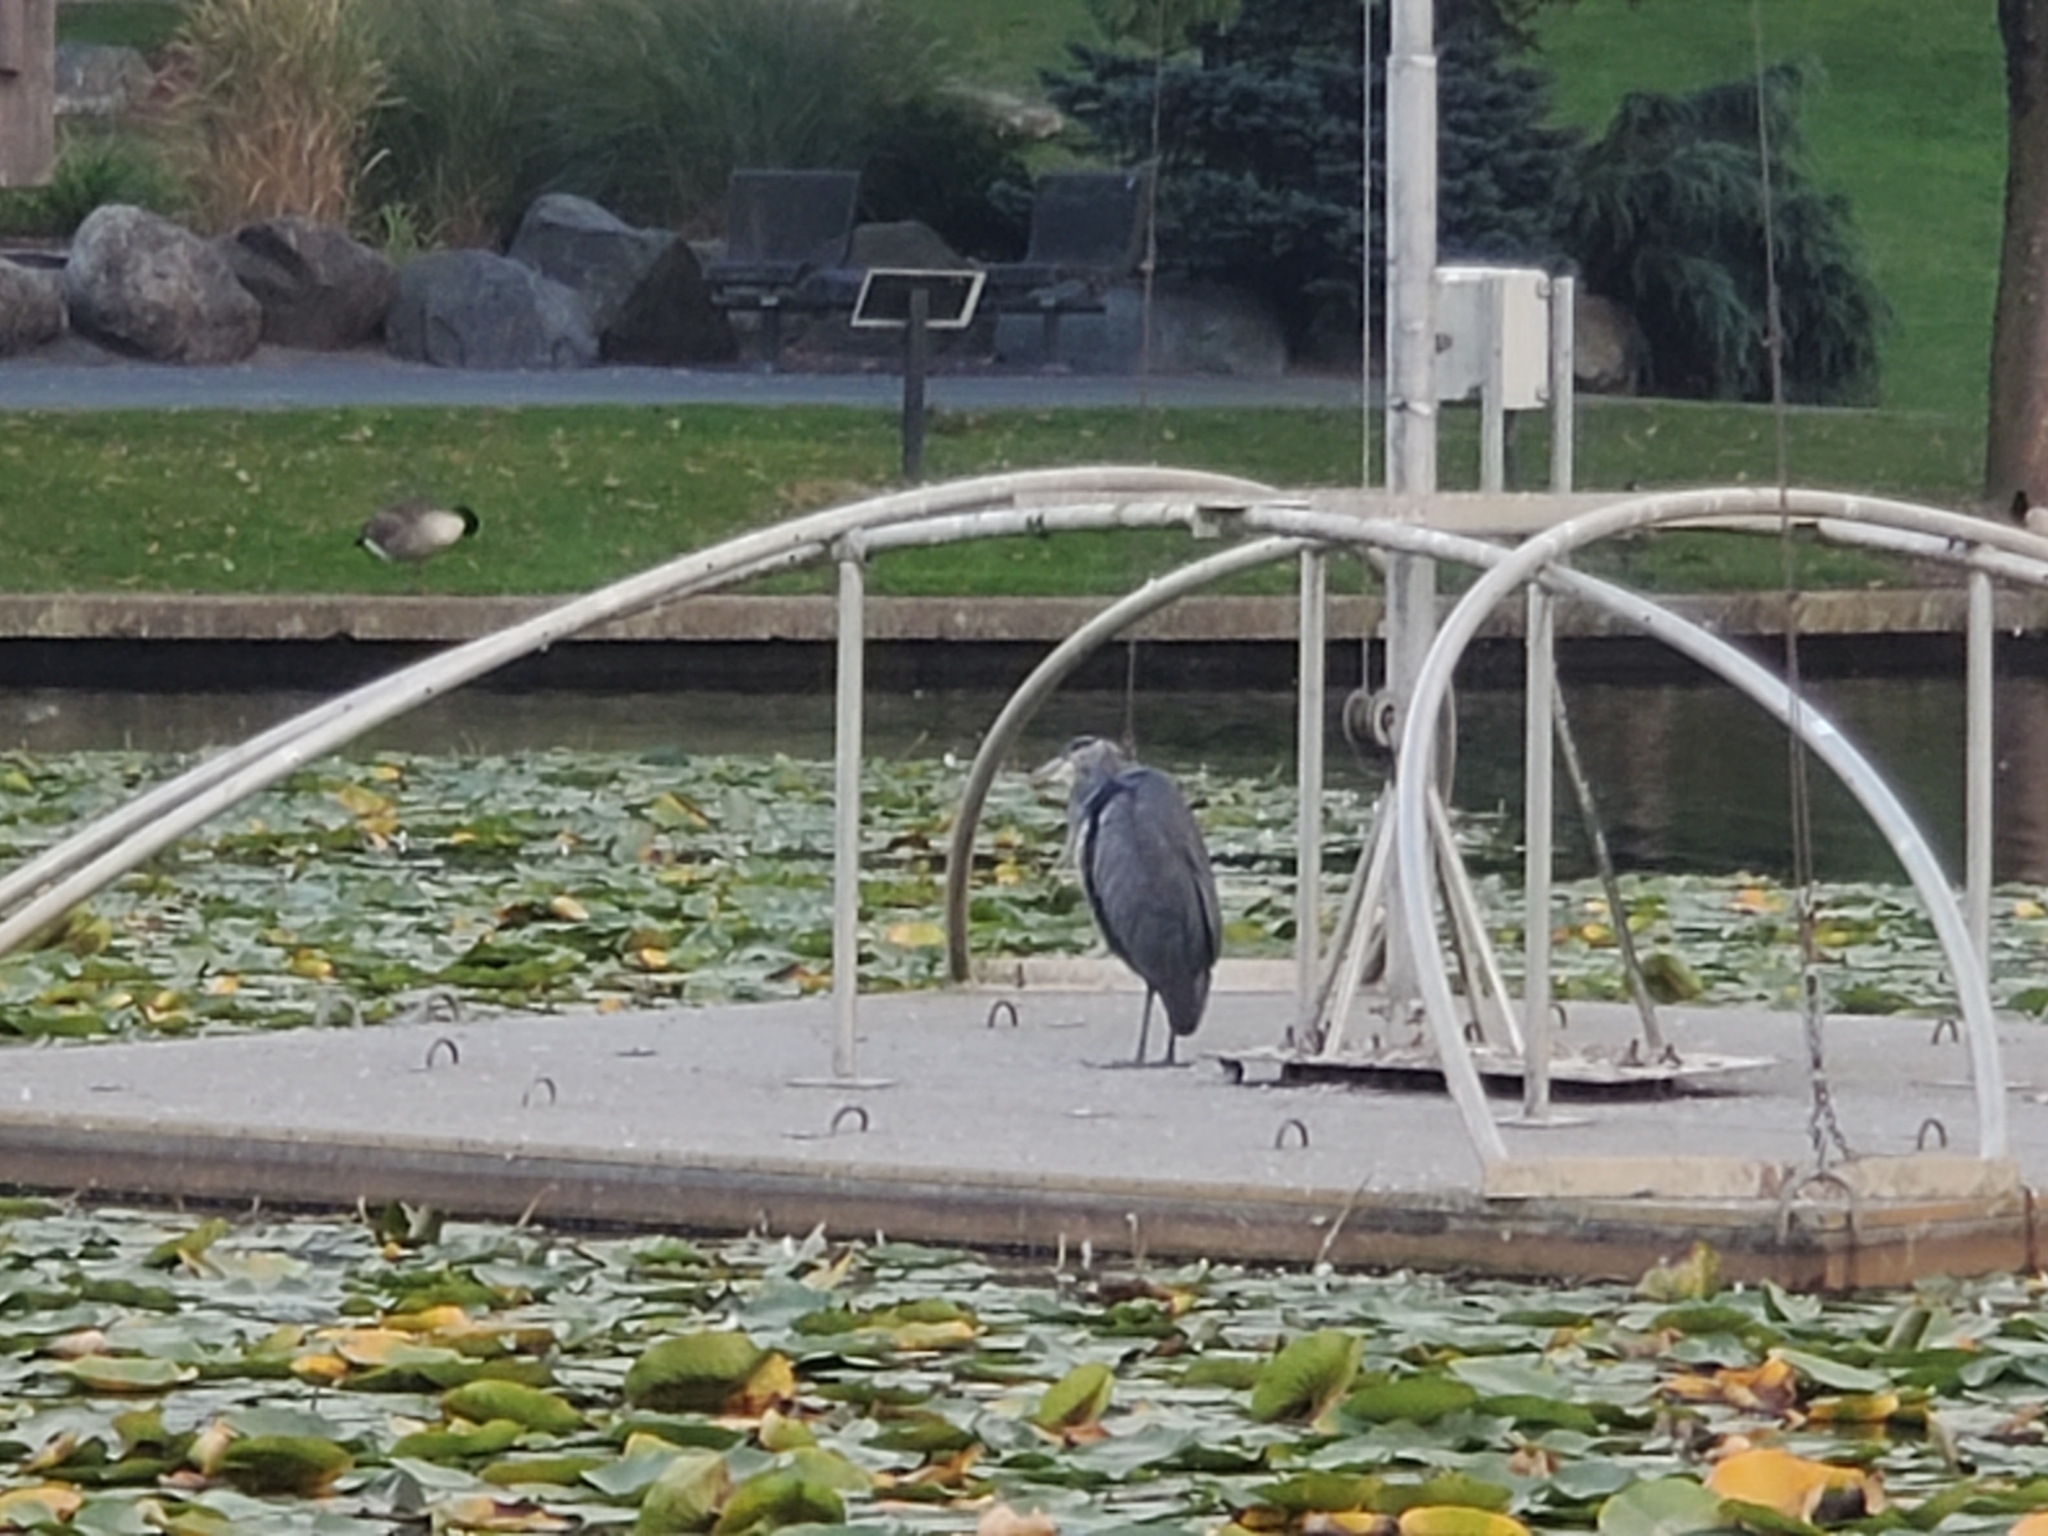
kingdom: Animalia
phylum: Chordata
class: Aves
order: Pelecaniformes
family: Ardeidae
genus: Ardea
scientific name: Ardea herodias
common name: Great blue heron
